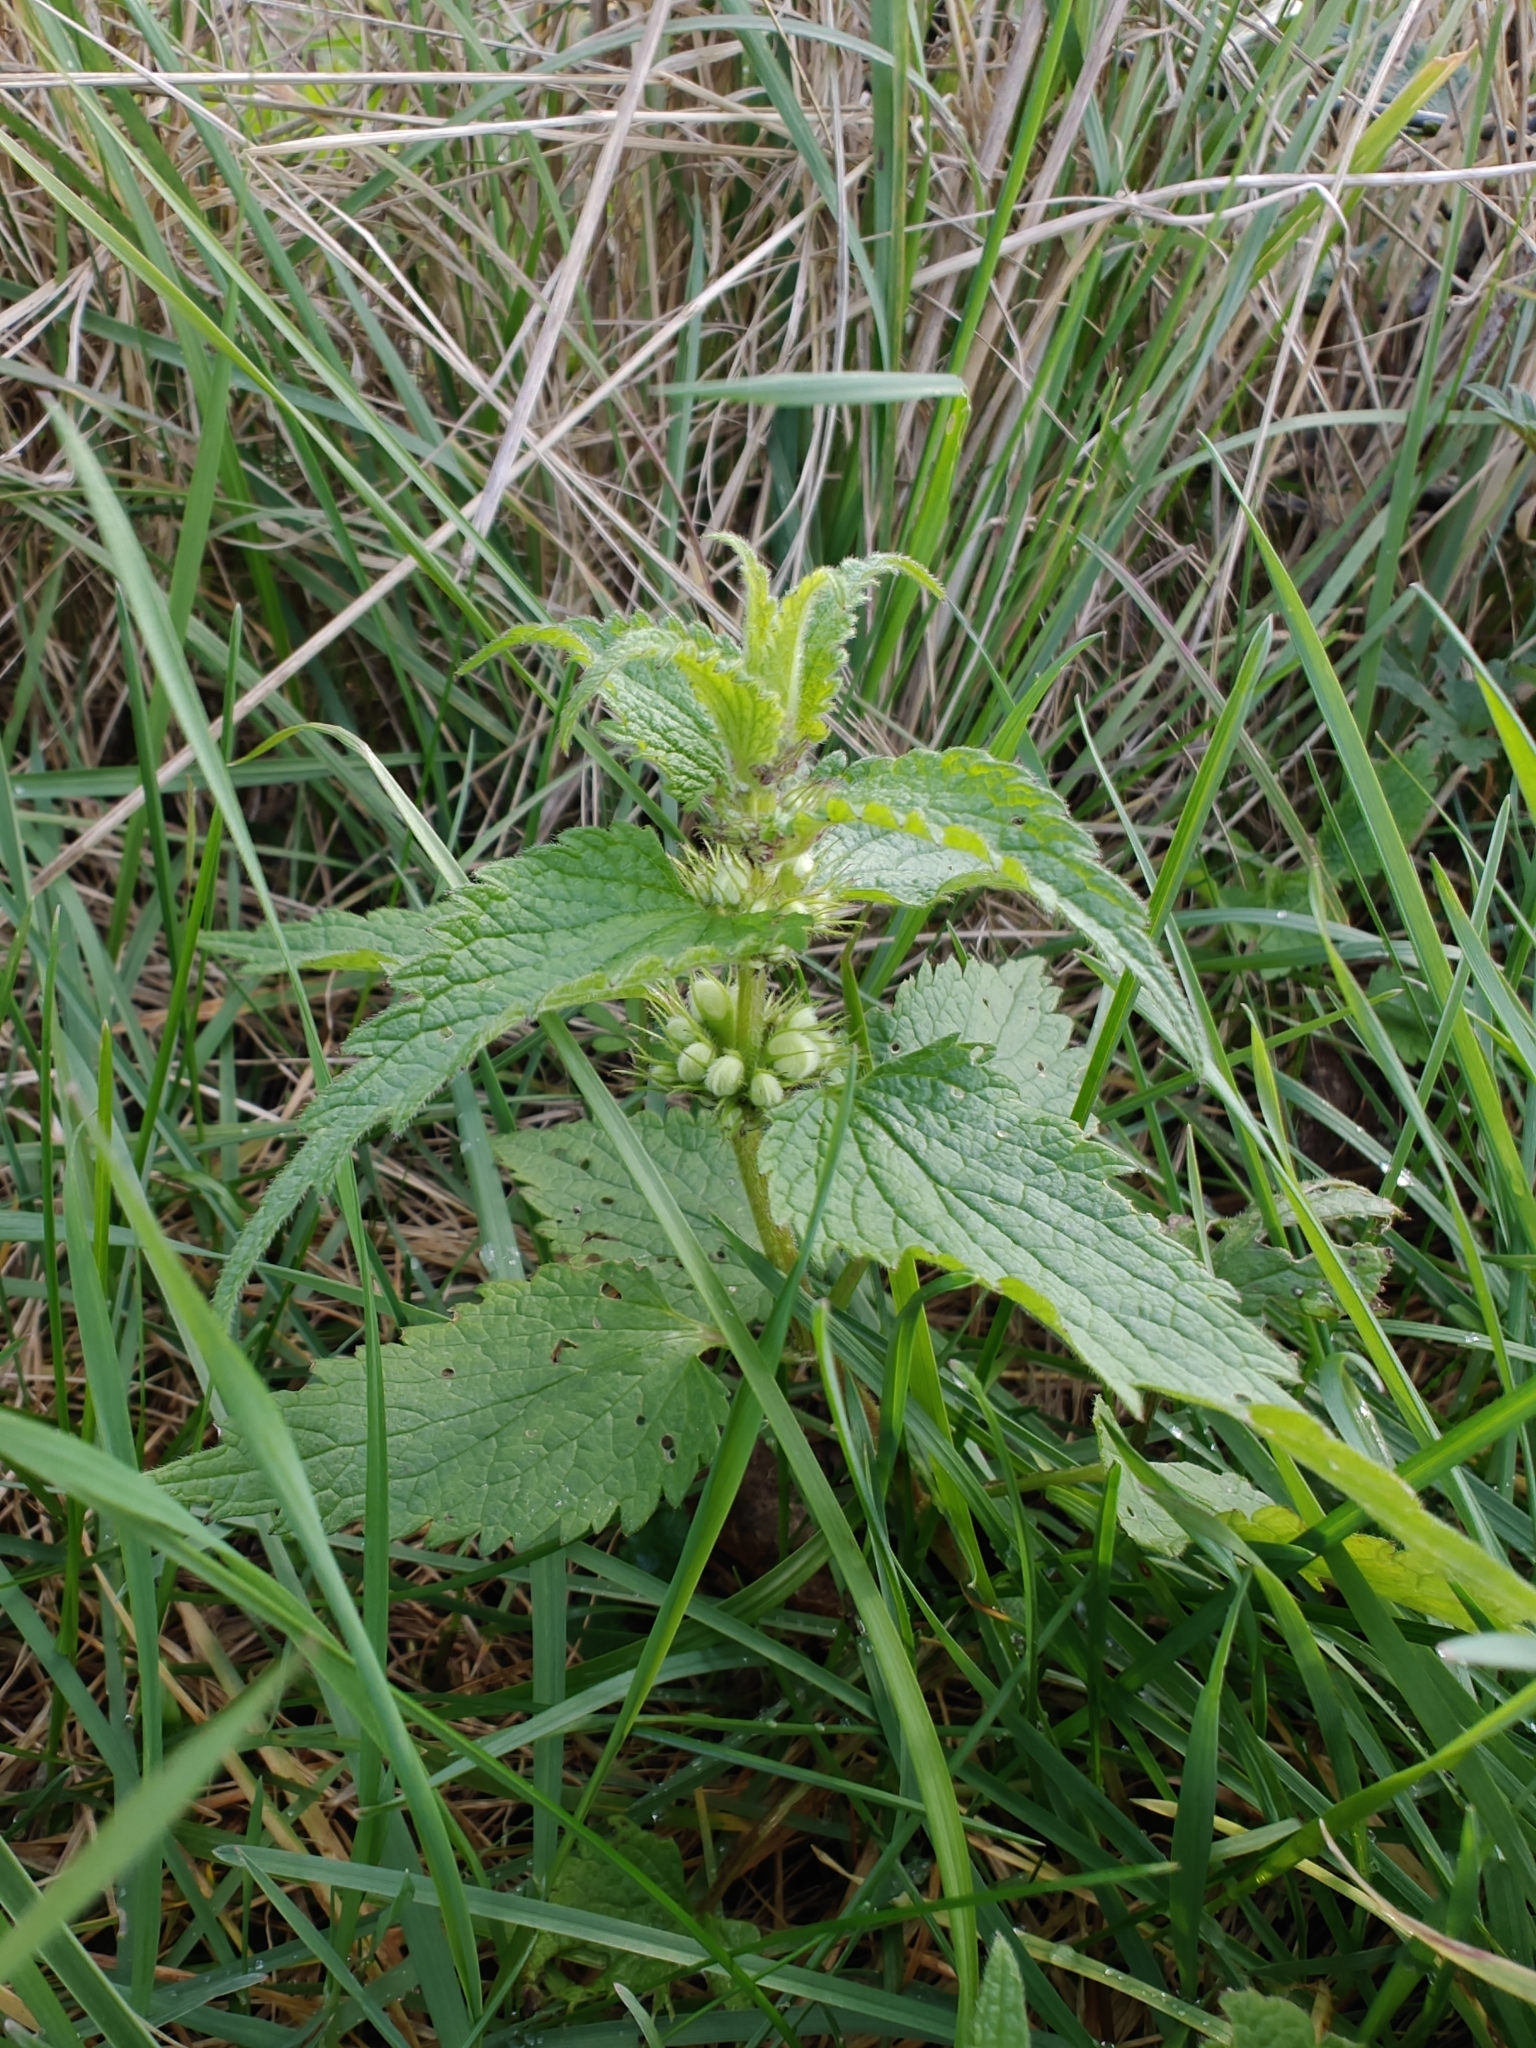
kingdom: Plantae
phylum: Tracheophyta
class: Magnoliopsida
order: Lamiales
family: Lamiaceae
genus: Lamium
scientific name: Lamium album
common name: White dead-nettle
